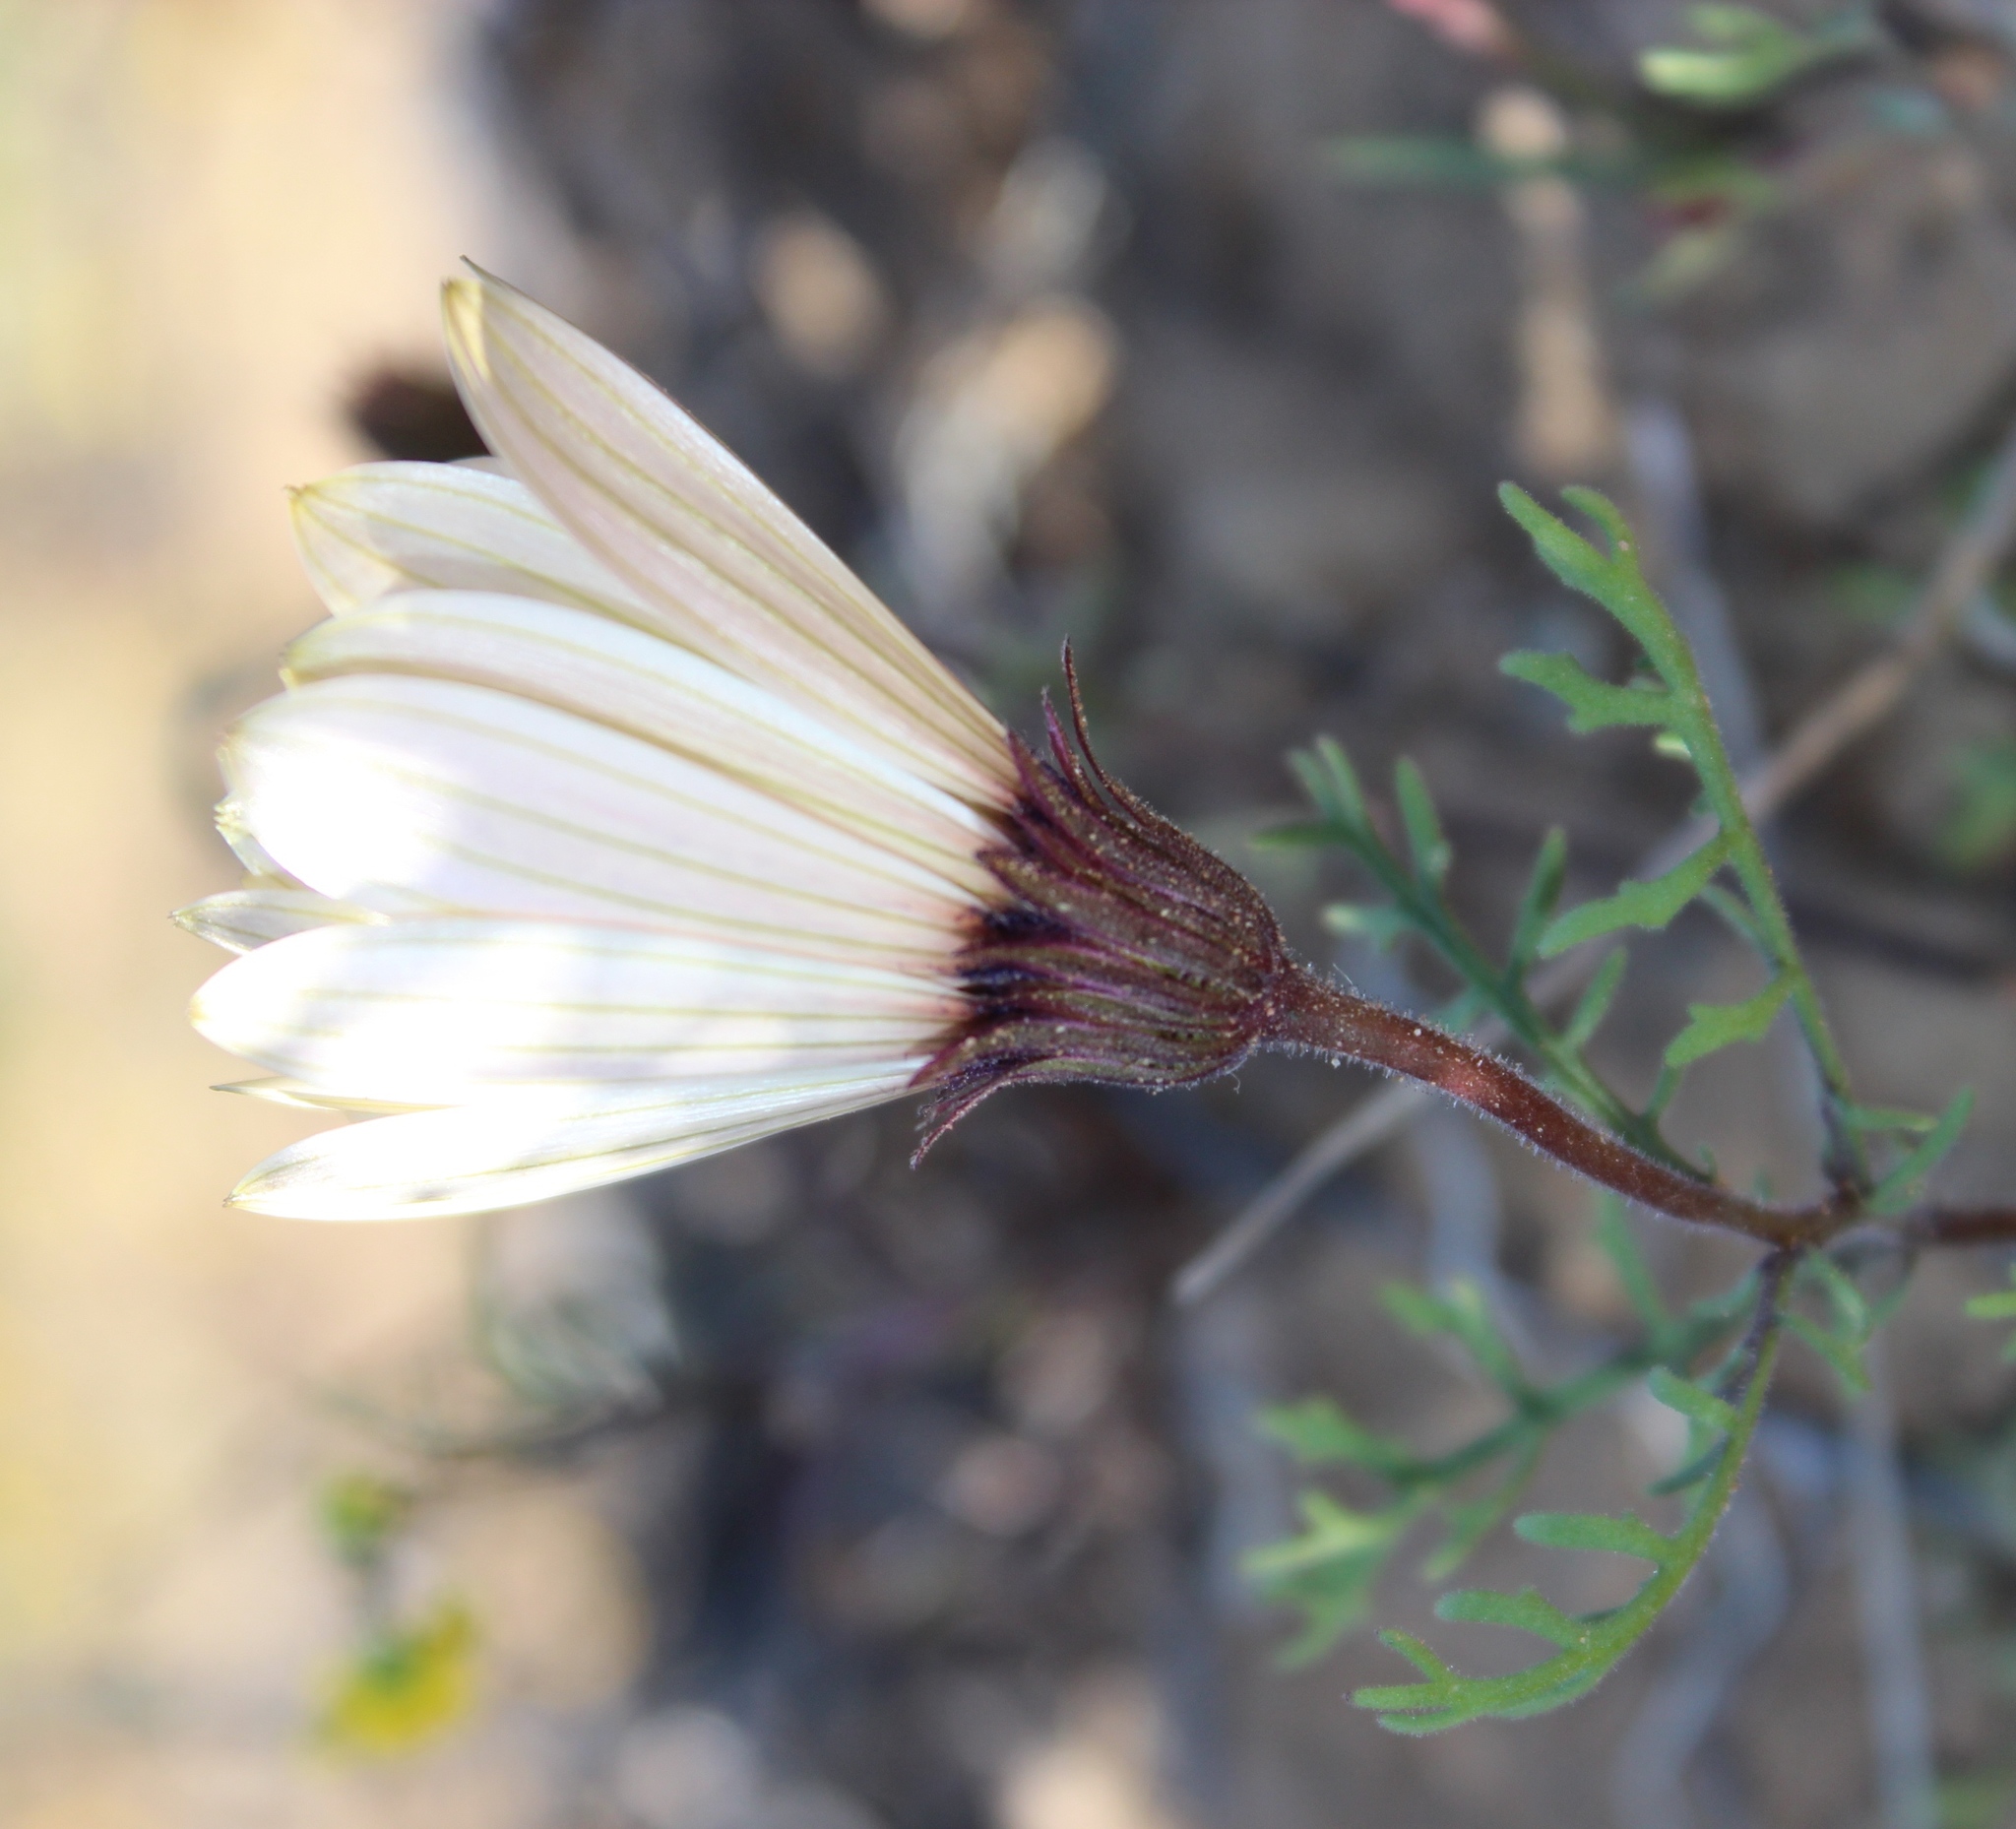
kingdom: Plantae
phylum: Tracheophyta
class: Magnoliopsida
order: Asterales
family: Asteraceae
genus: Dimorphotheca
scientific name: Dimorphotheca pinnata
